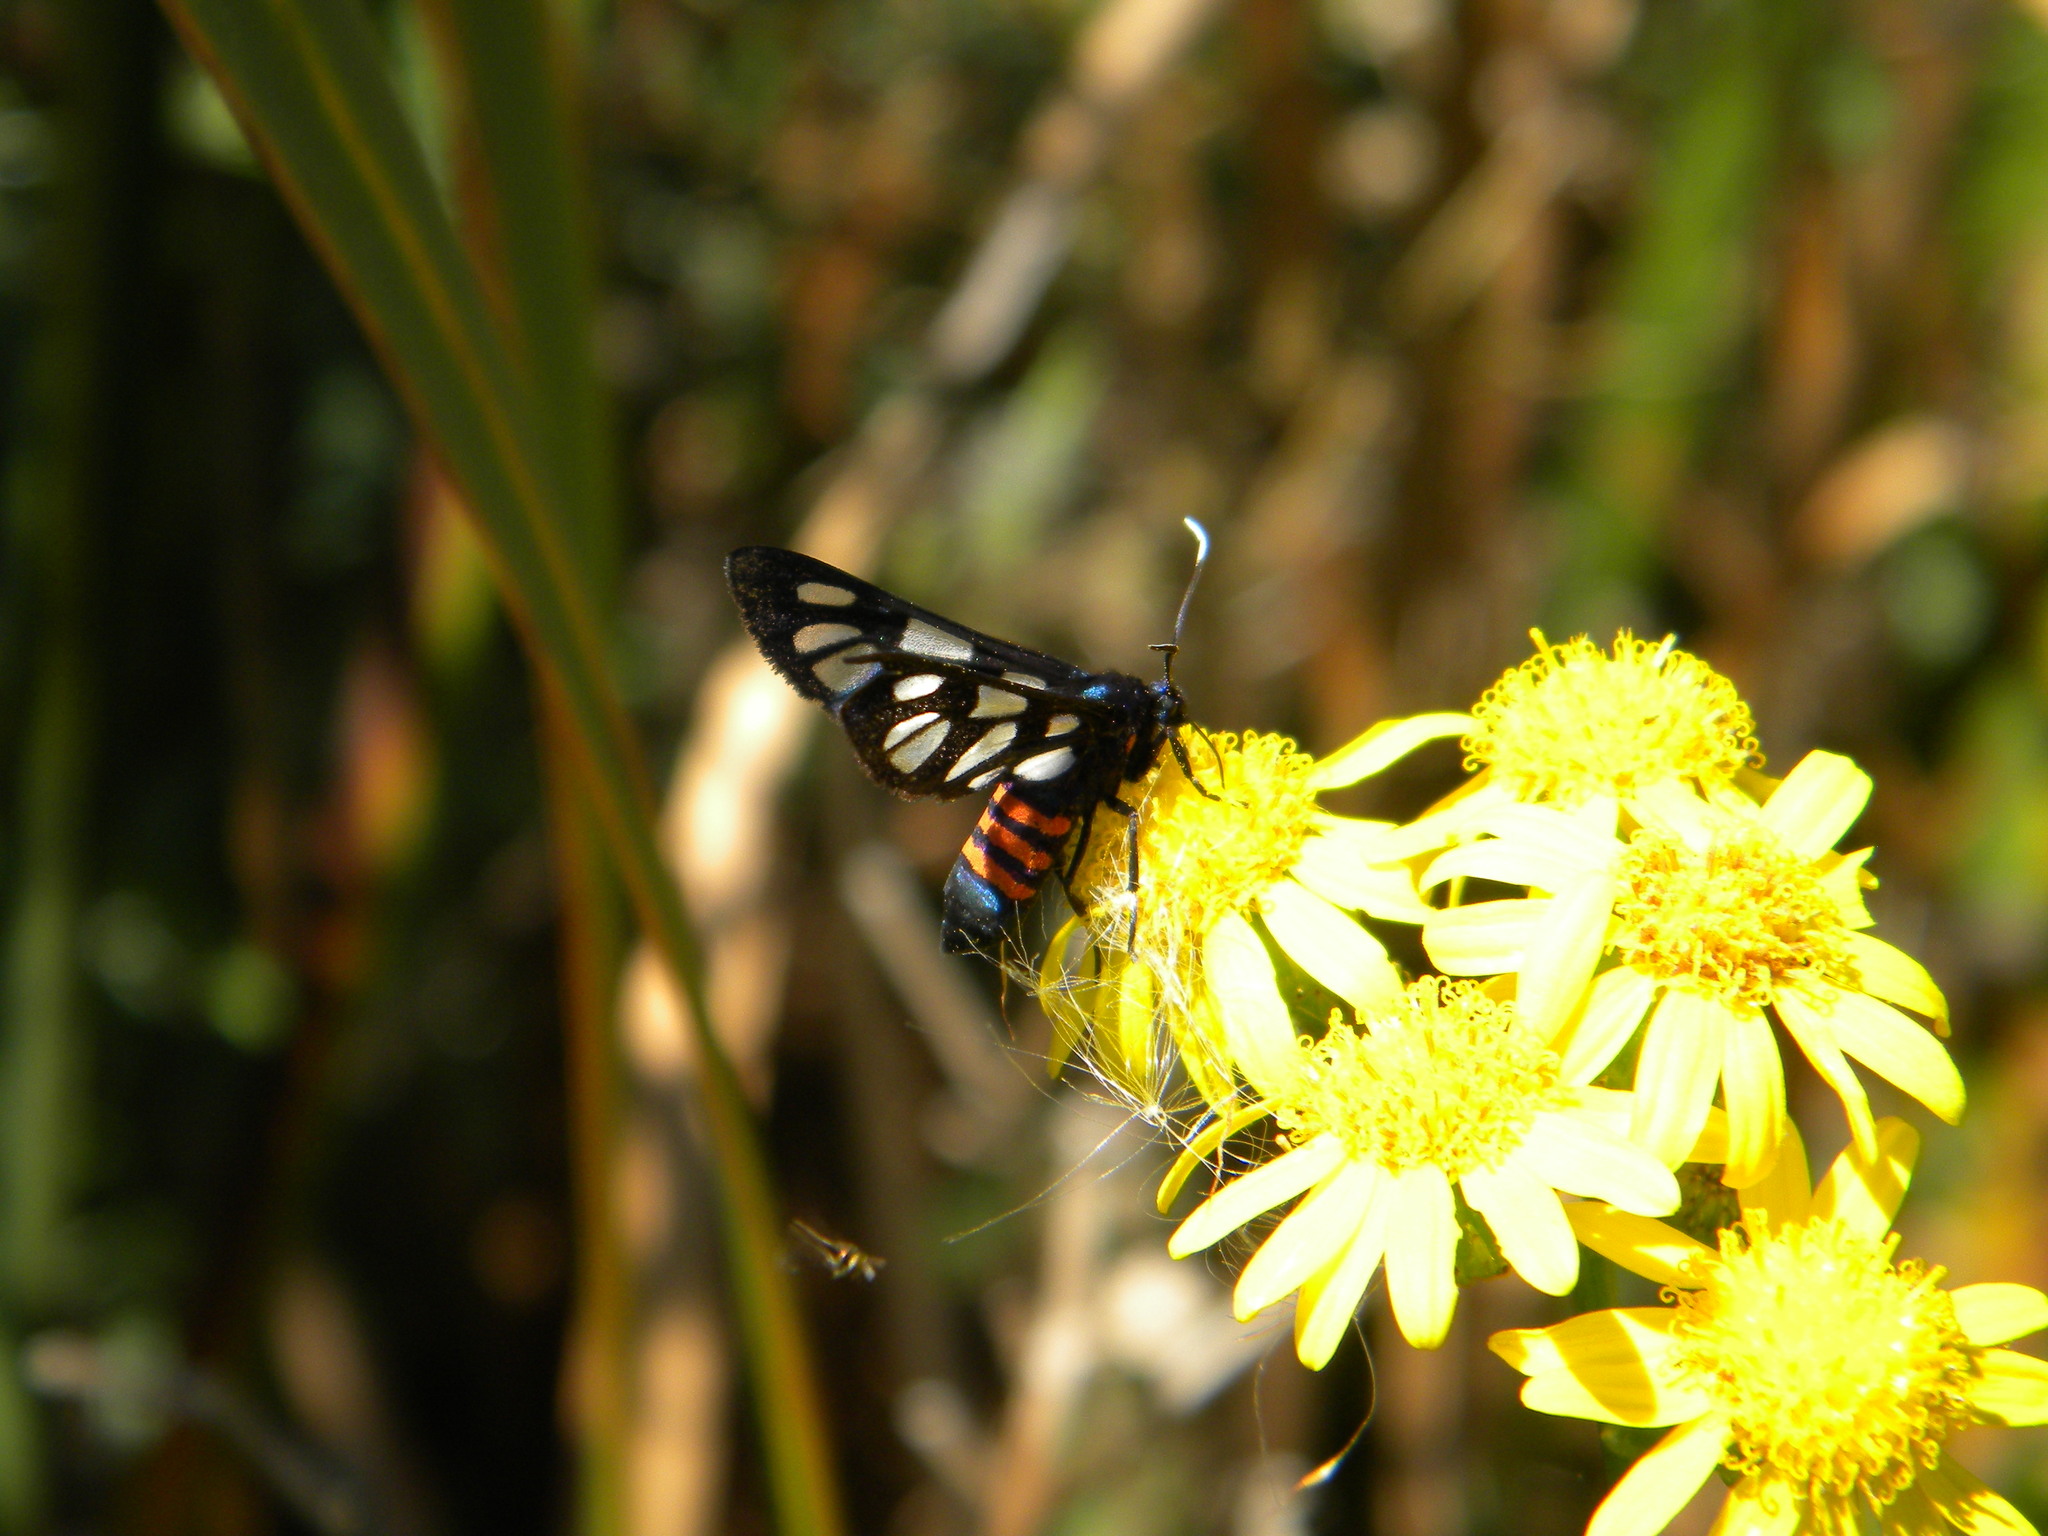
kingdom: Animalia
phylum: Arthropoda
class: Insecta
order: Lepidoptera
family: Erebidae
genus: Amata
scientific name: Amata cerbera
